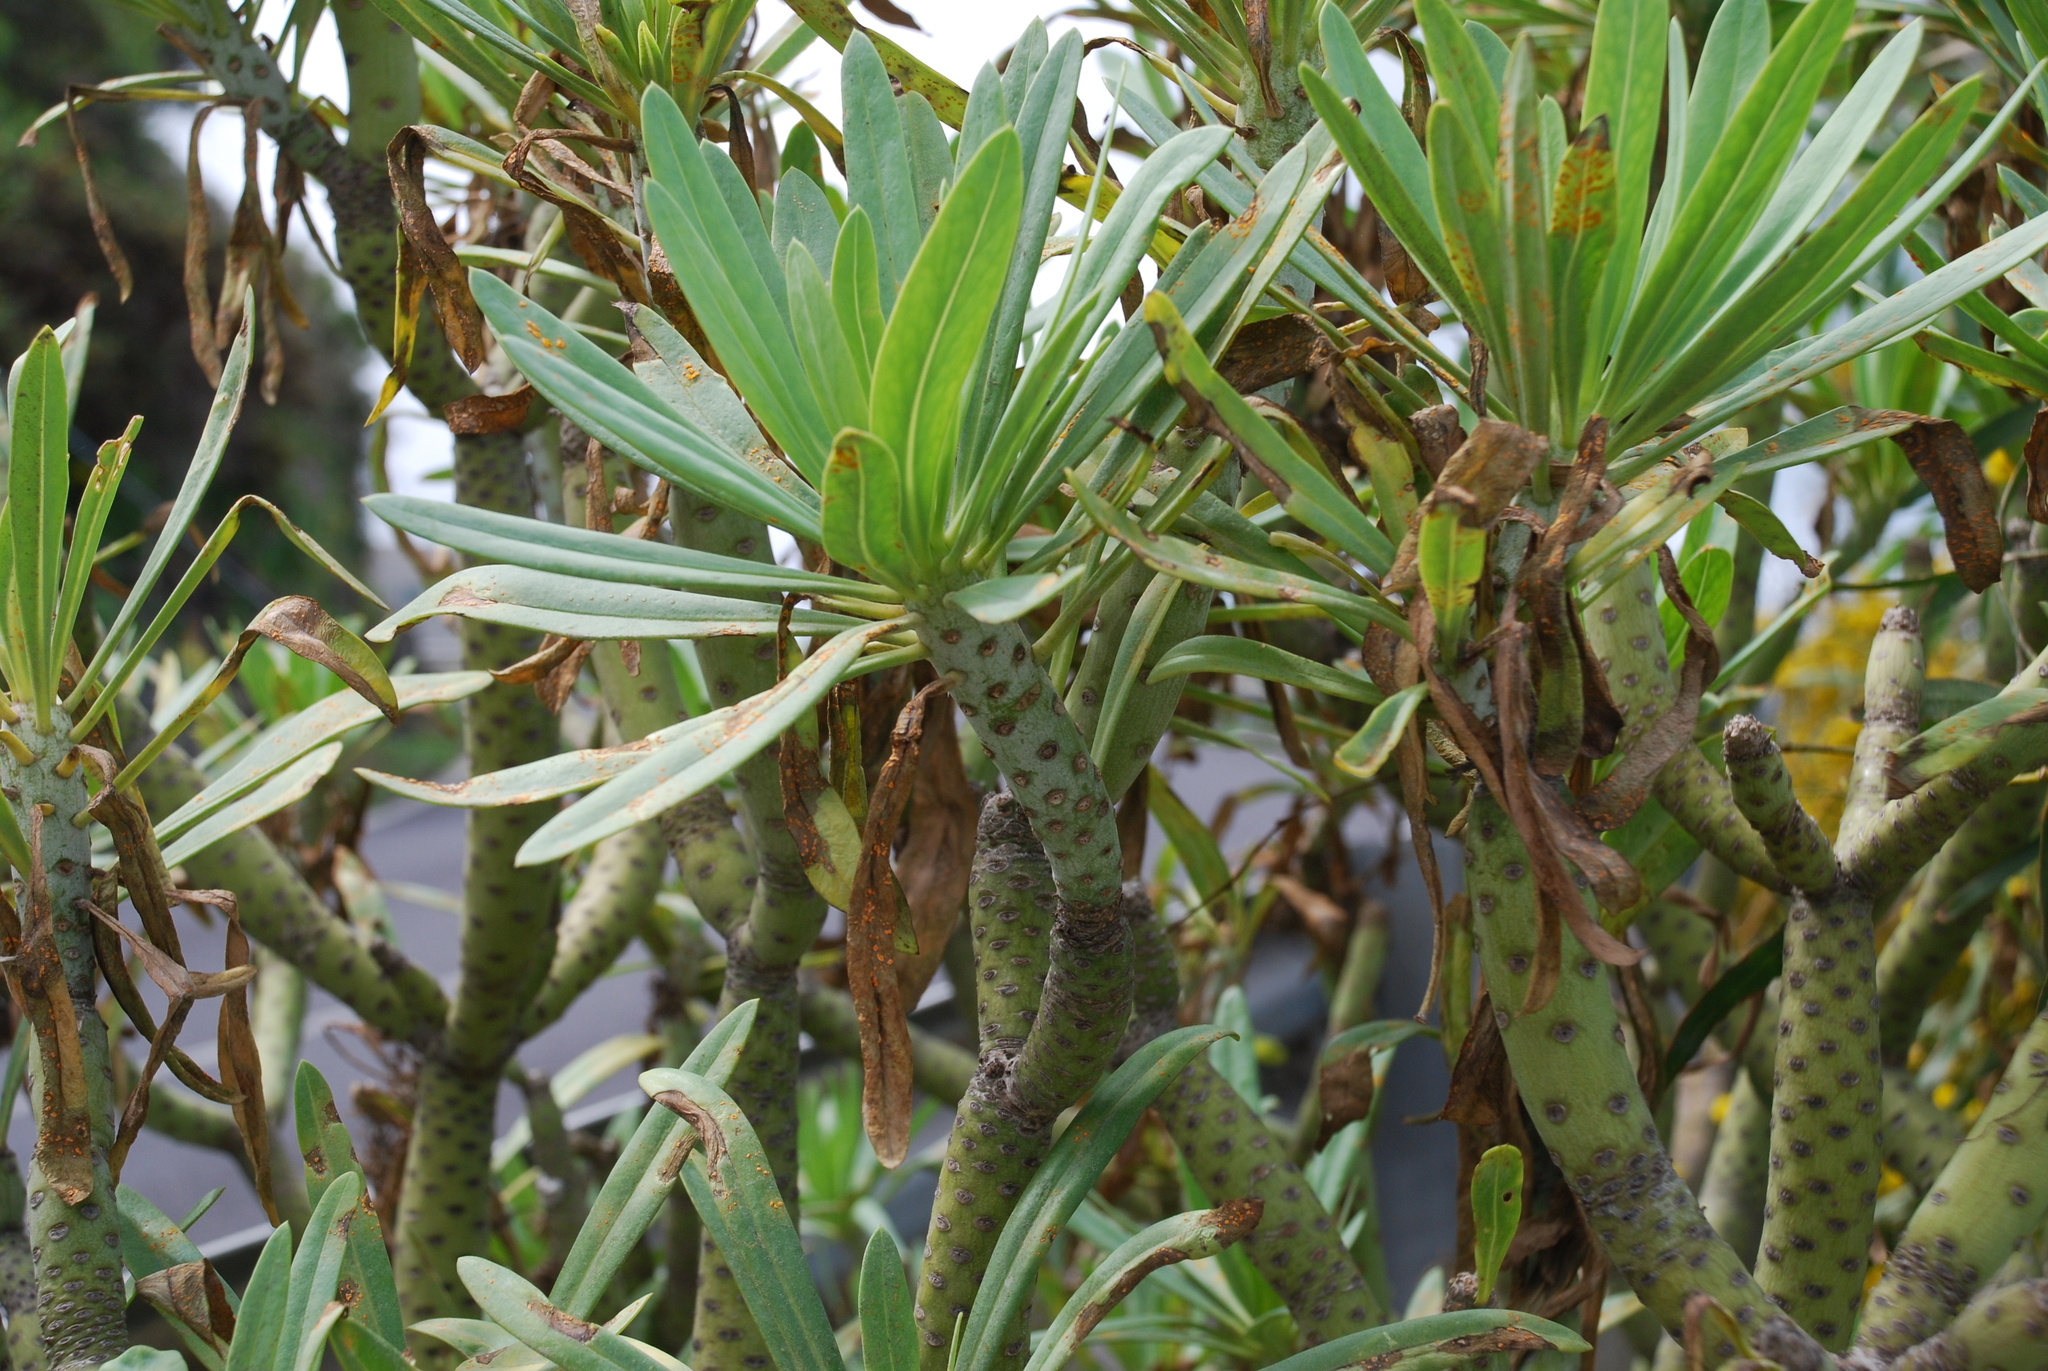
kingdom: Plantae
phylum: Tracheophyta
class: Magnoliopsida
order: Asterales
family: Asteraceae
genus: Kleinia
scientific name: Kleinia neriifolia
